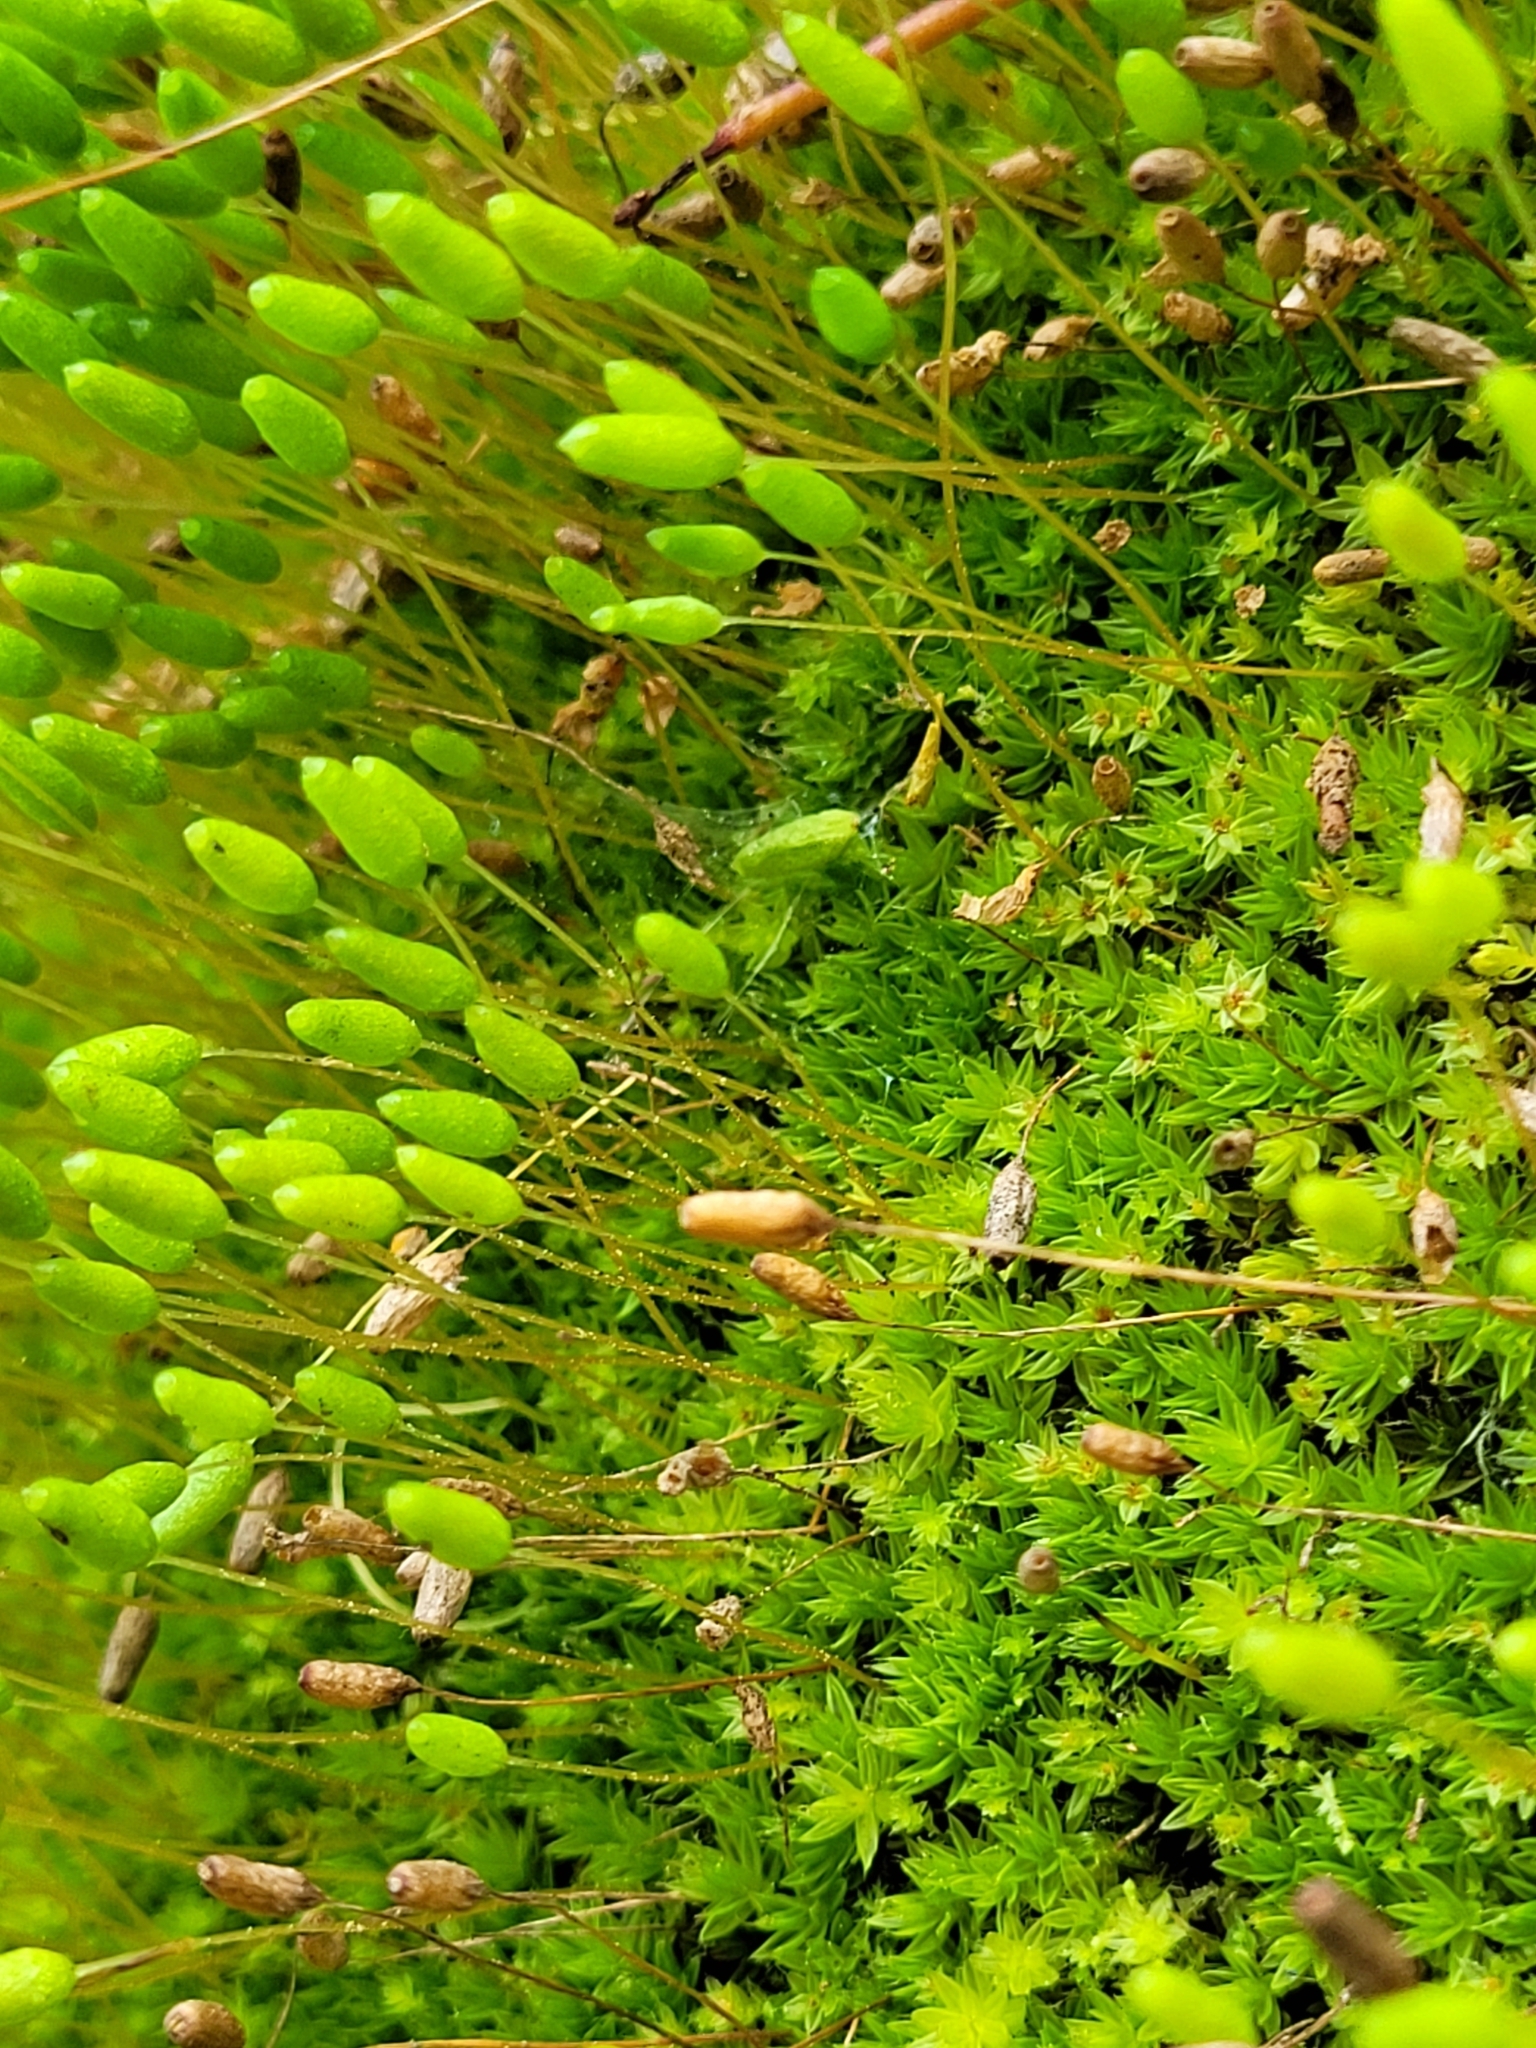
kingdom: Plantae
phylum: Bryophyta
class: Bryopsida
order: Bryales
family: Leptostomataceae
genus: Leptostomum
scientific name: Leptostomum macrocarpon
